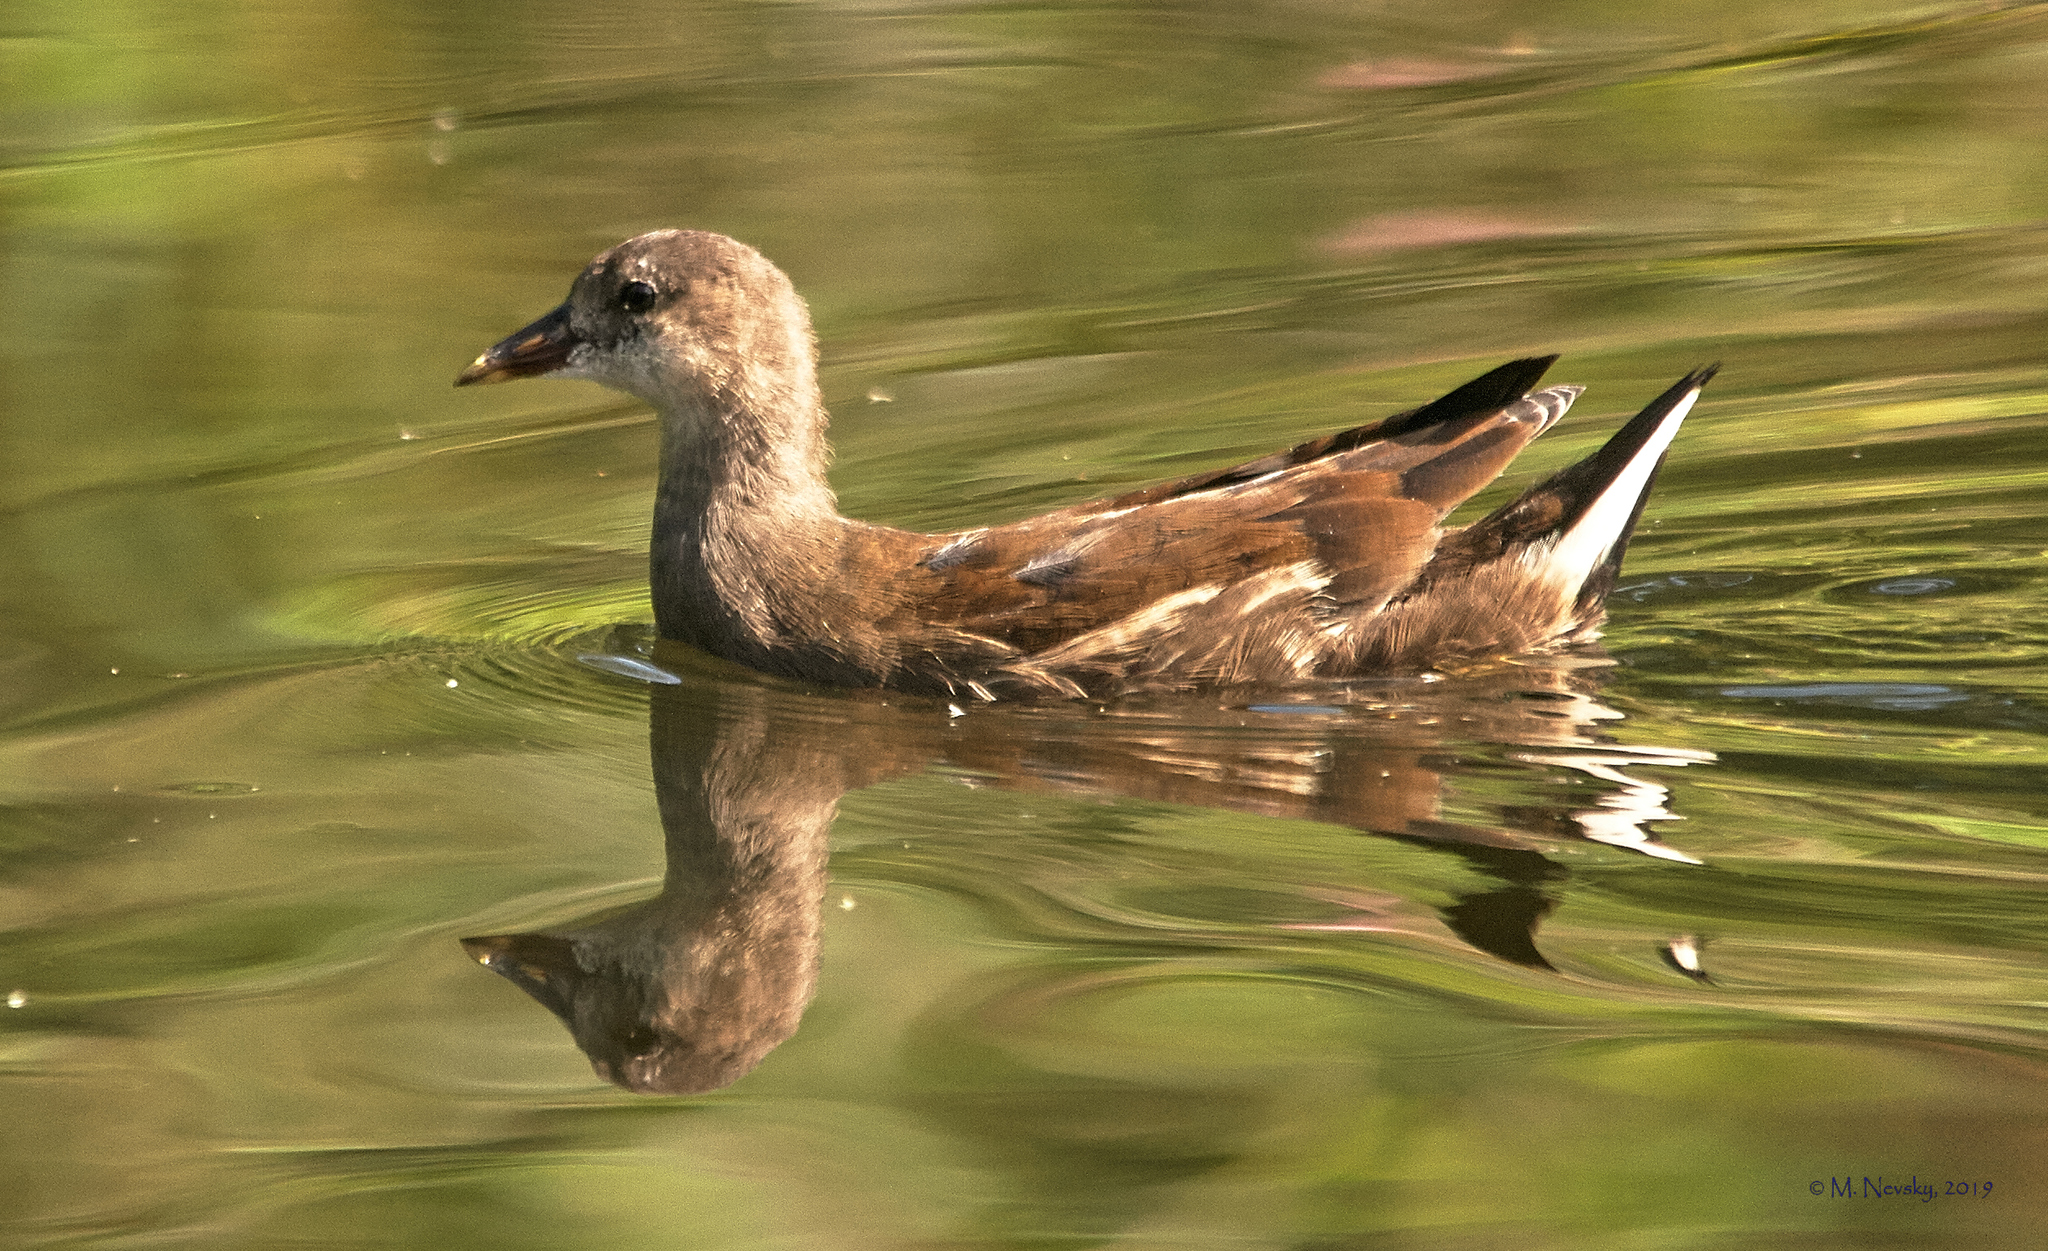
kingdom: Animalia
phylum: Chordata
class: Aves
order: Gruiformes
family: Rallidae
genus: Gallinula
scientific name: Gallinula chloropus
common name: Common moorhen
